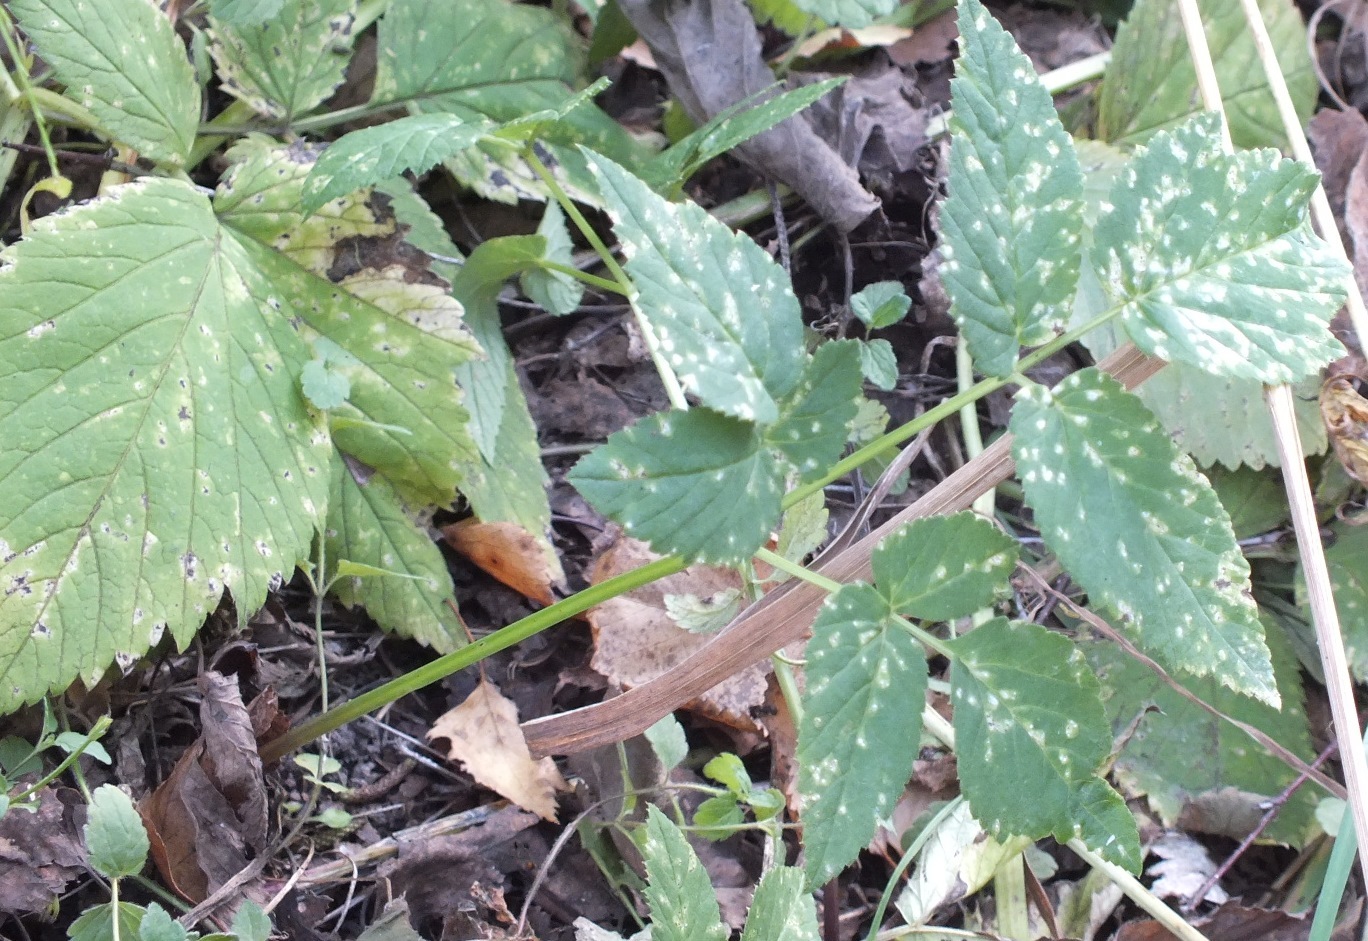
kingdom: Plantae
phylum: Tracheophyta
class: Magnoliopsida
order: Apiales
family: Apiaceae
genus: Aegopodium
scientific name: Aegopodium podagraria
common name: Ground-elder
